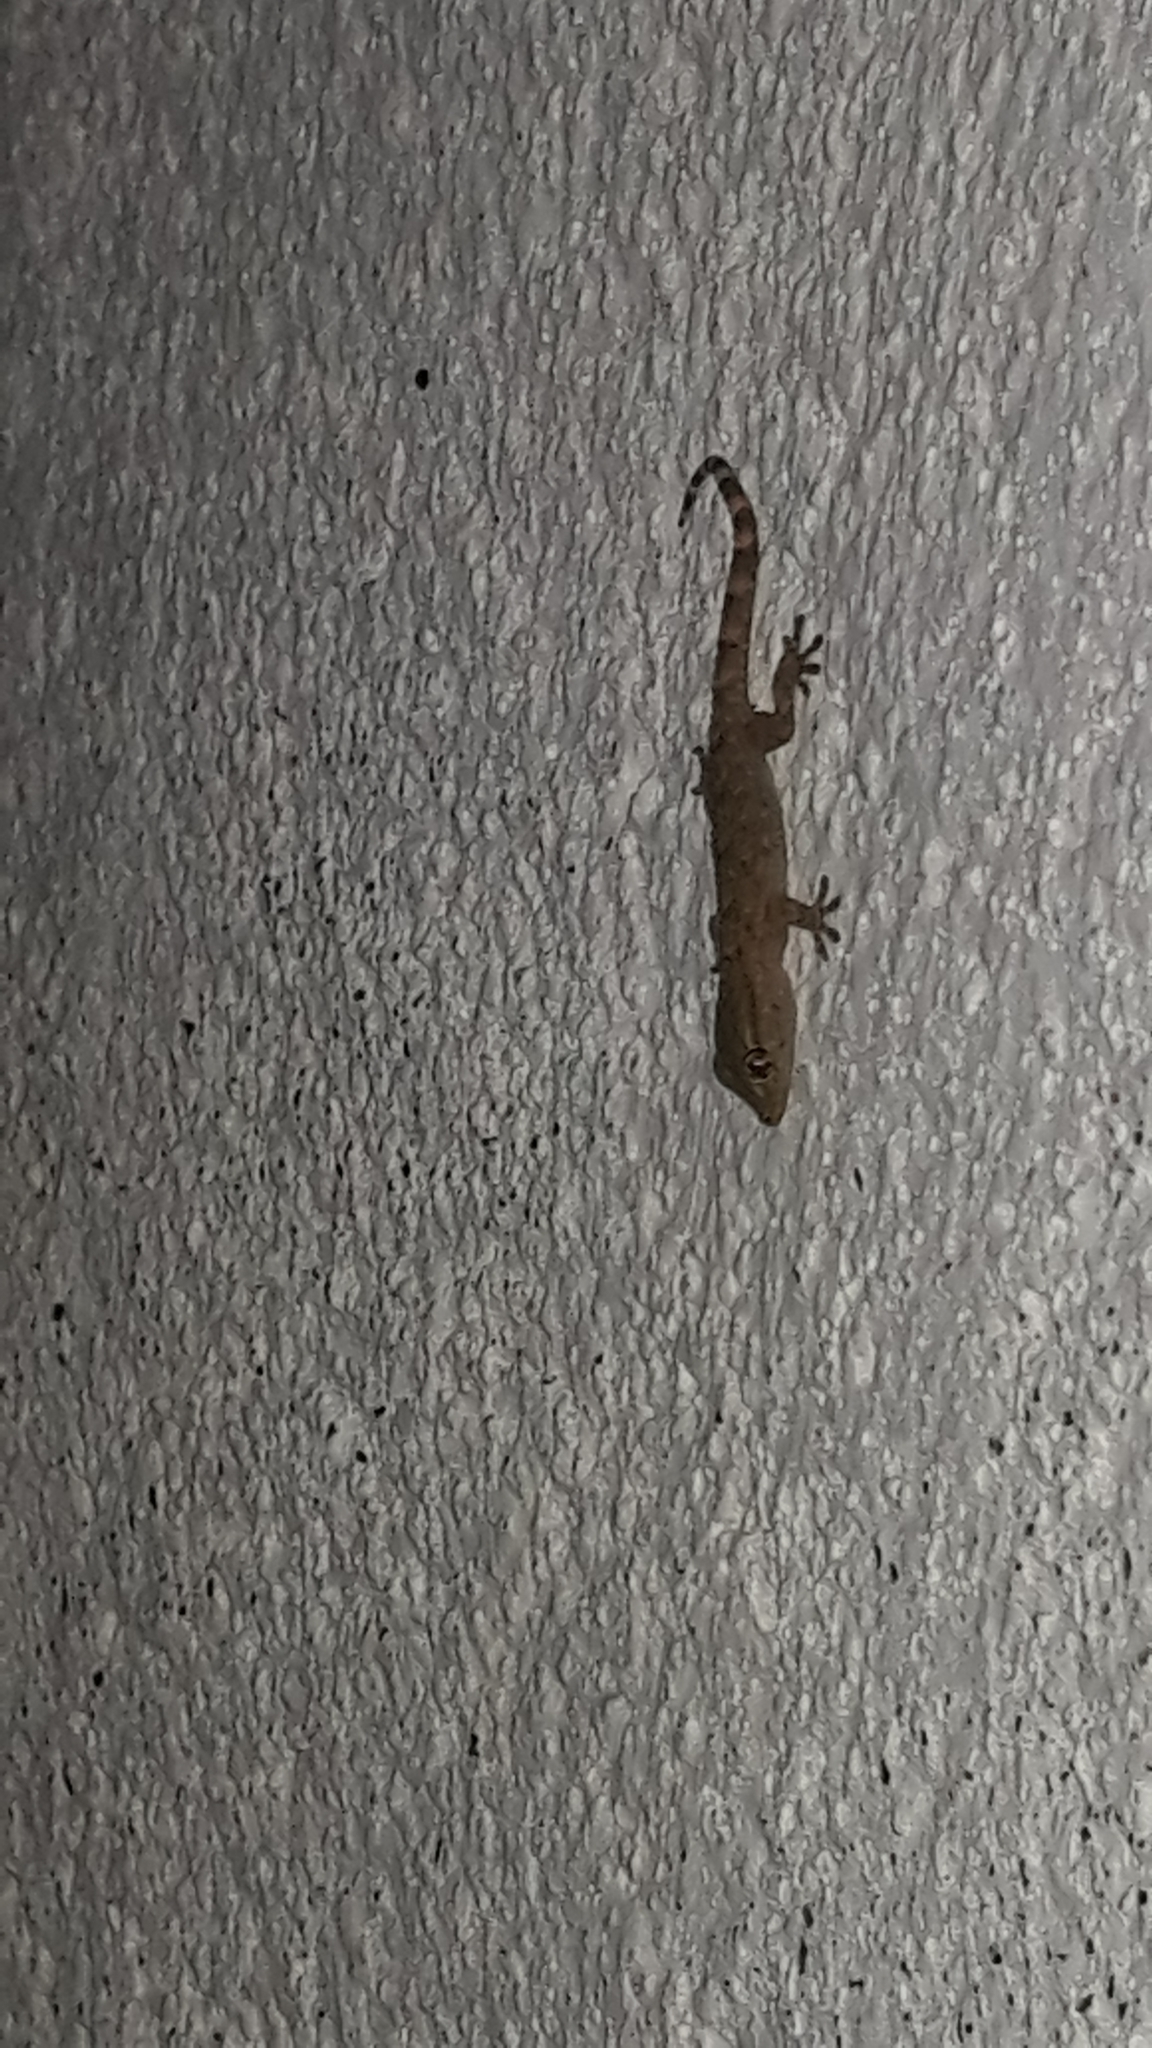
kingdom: Animalia
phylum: Chordata
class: Squamata
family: Phyllodactylidae
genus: Tarentola
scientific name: Tarentola mauritanica
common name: Moorish gecko
